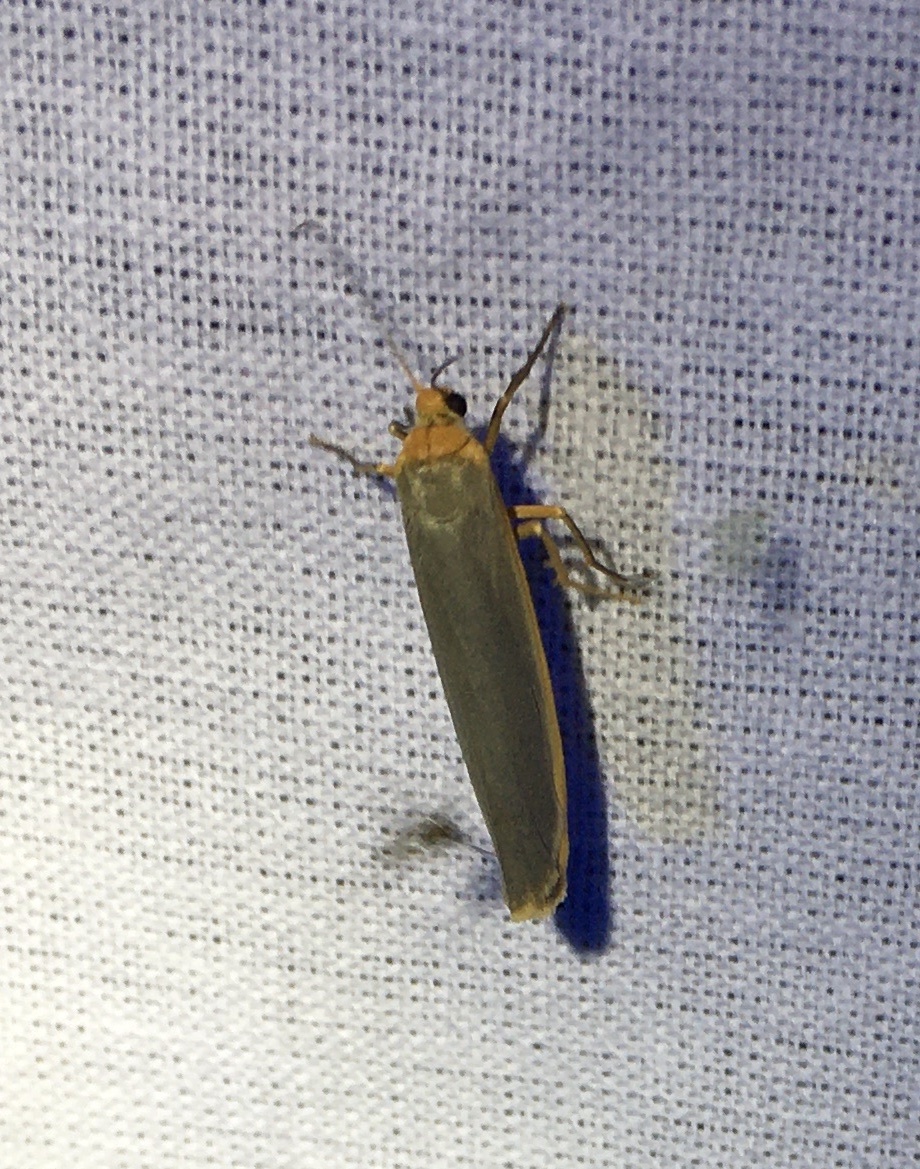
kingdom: Animalia
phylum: Arthropoda
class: Insecta
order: Lepidoptera
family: Erebidae
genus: Manulea
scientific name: Manulea complana
